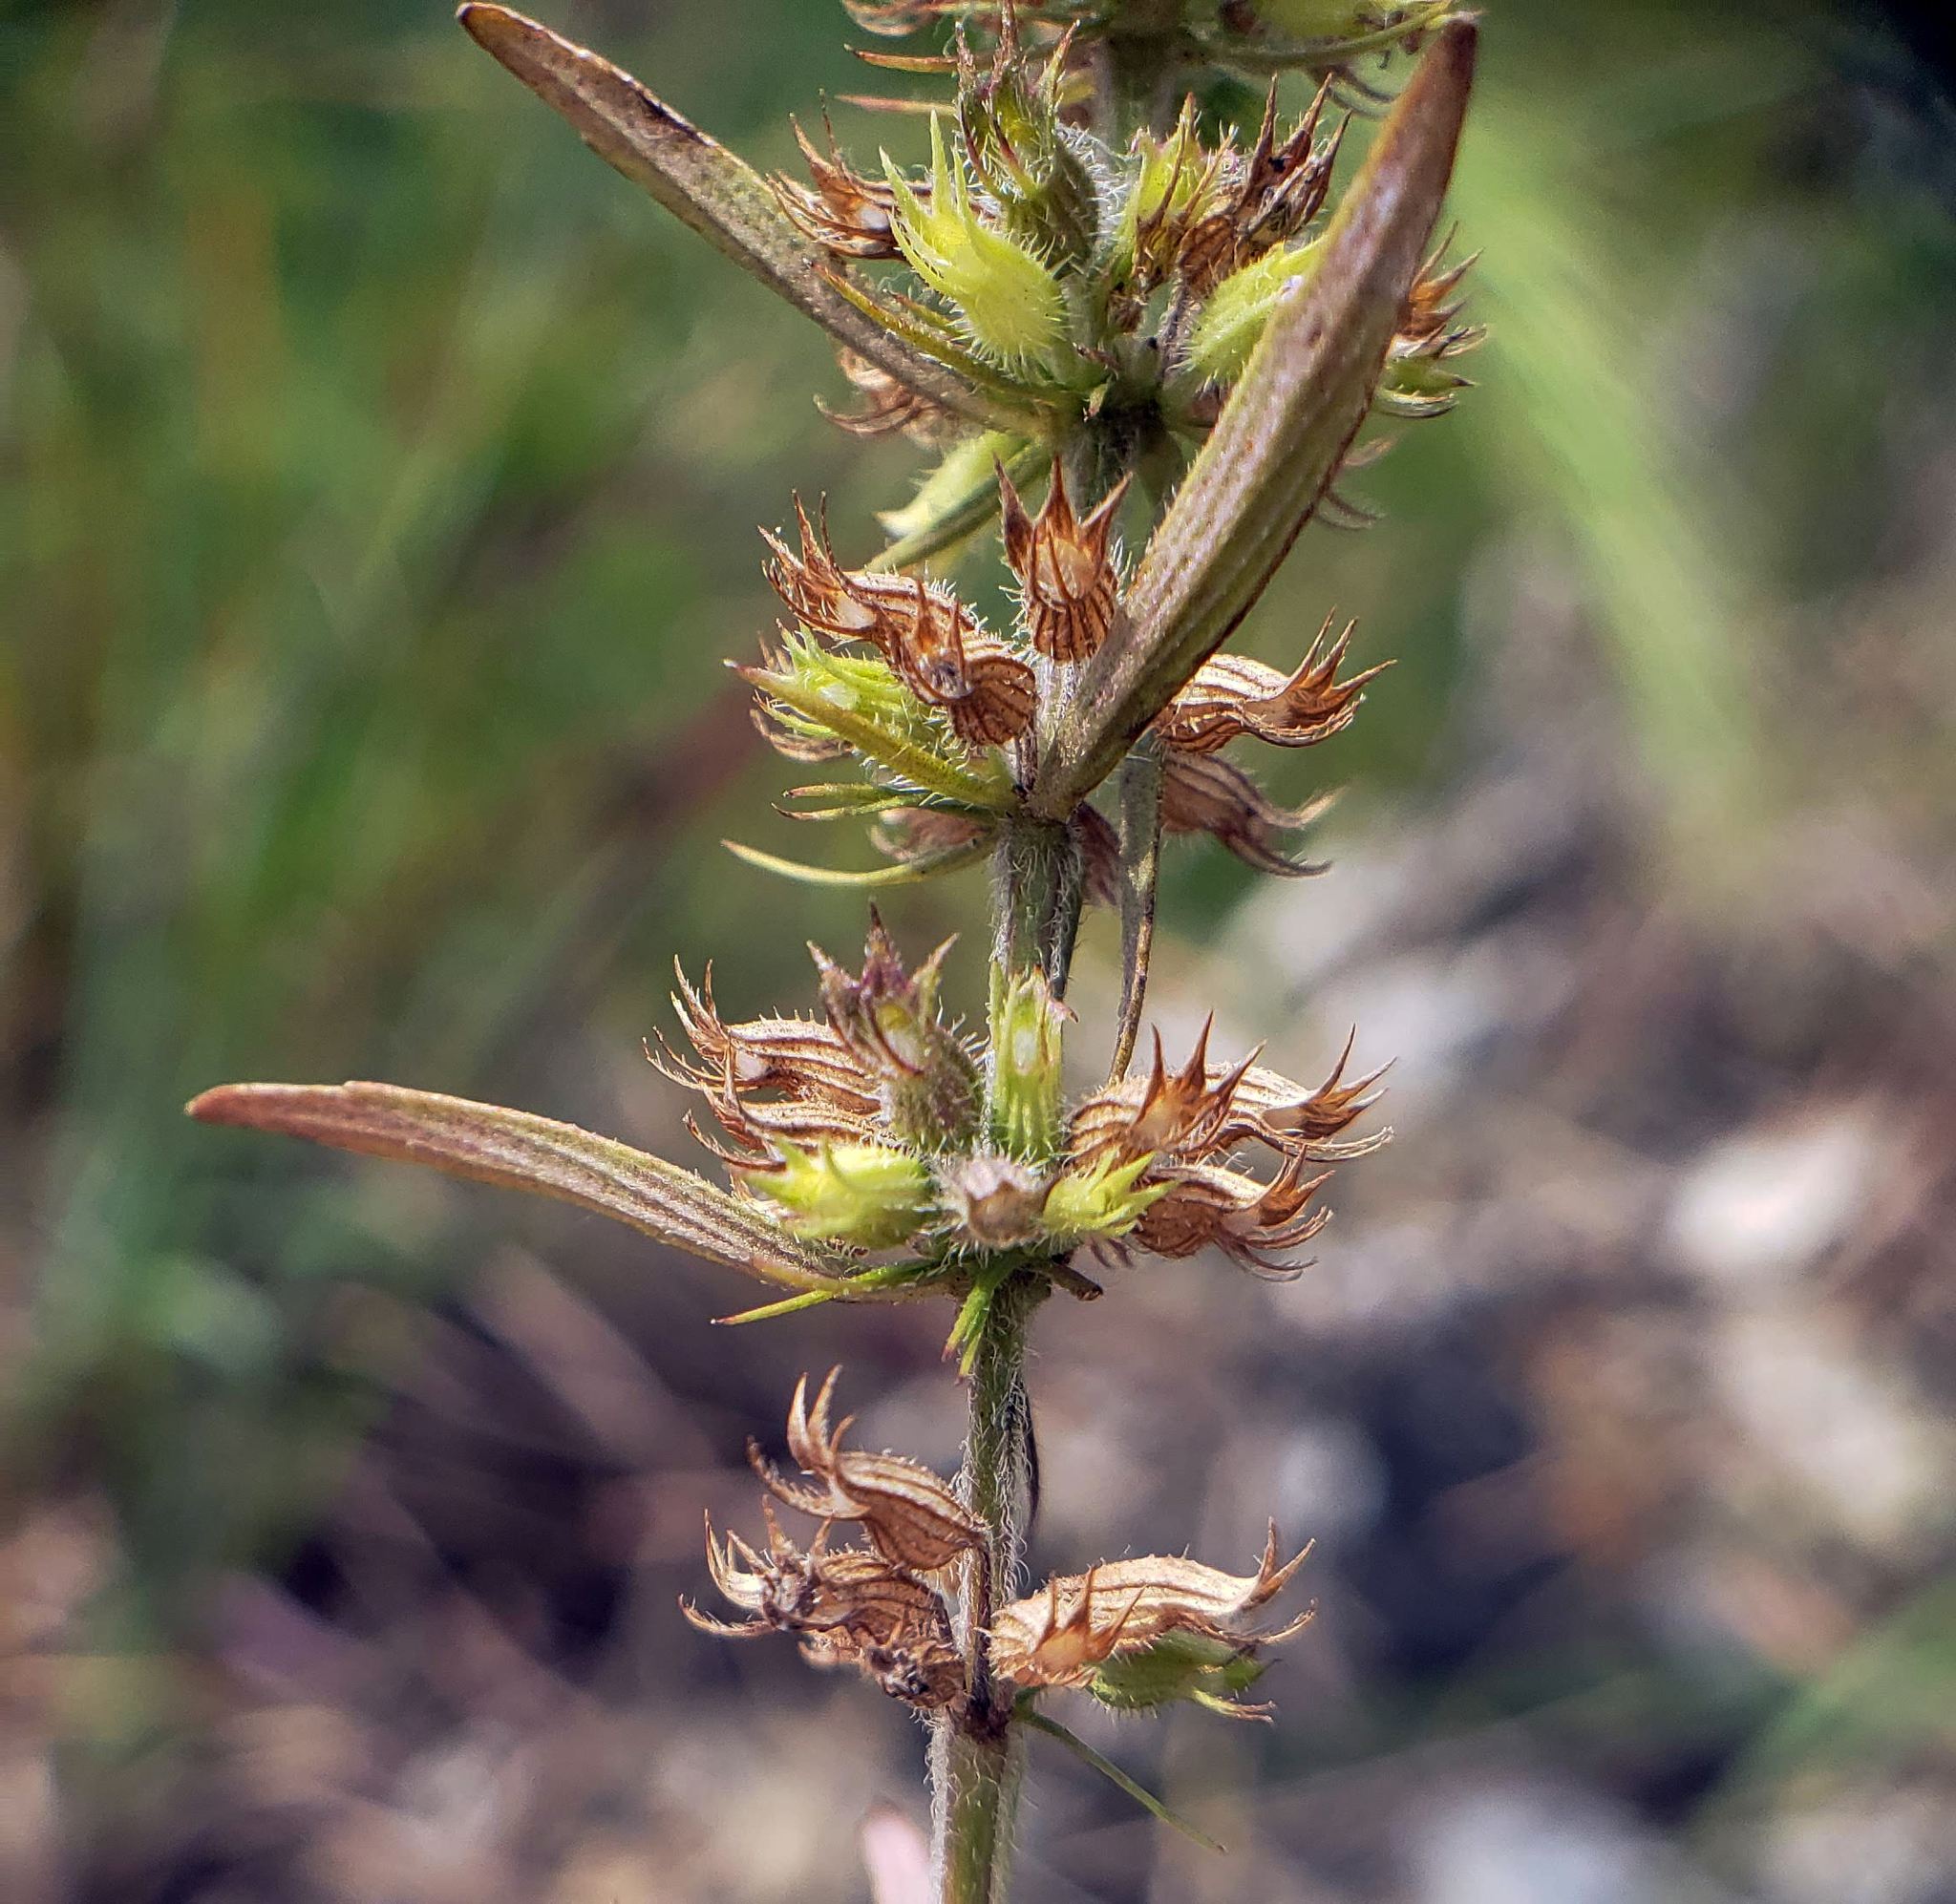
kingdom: Plantae
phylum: Tracheophyta
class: Magnoliopsida
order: Lamiales
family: Lamiaceae
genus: Hedeoma
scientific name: Hedeoma hispida
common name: Mock pennyroyal
